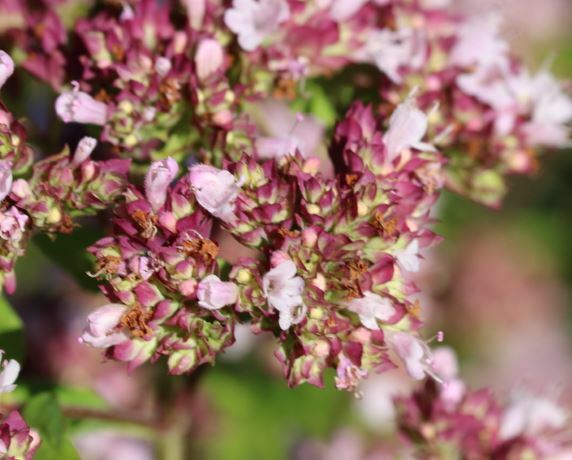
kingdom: Plantae
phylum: Tracheophyta
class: Magnoliopsida
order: Lamiales
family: Lamiaceae
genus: Origanum
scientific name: Origanum vulgare
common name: Wild marjoram
